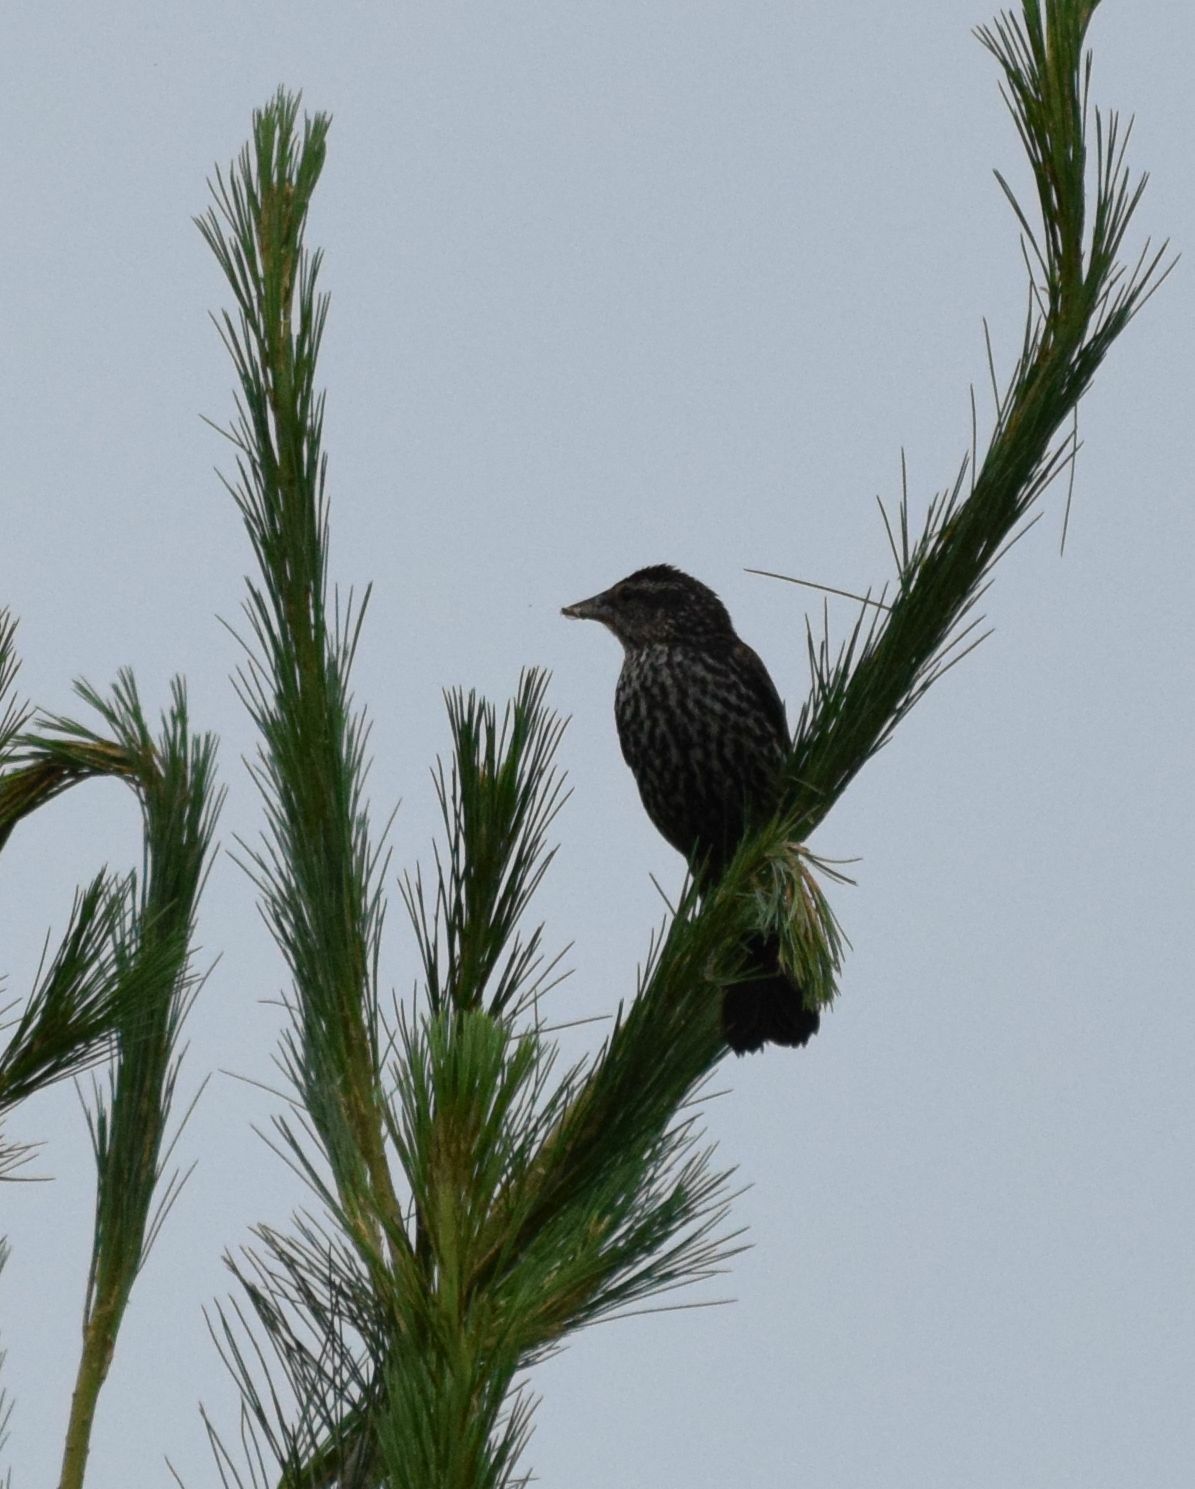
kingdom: Animalia
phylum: Chordata
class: Aves
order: Passeriformes
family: Icteridae
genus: Agelaius
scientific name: Agelaius phoeniceus
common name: Red-winged blackbird
